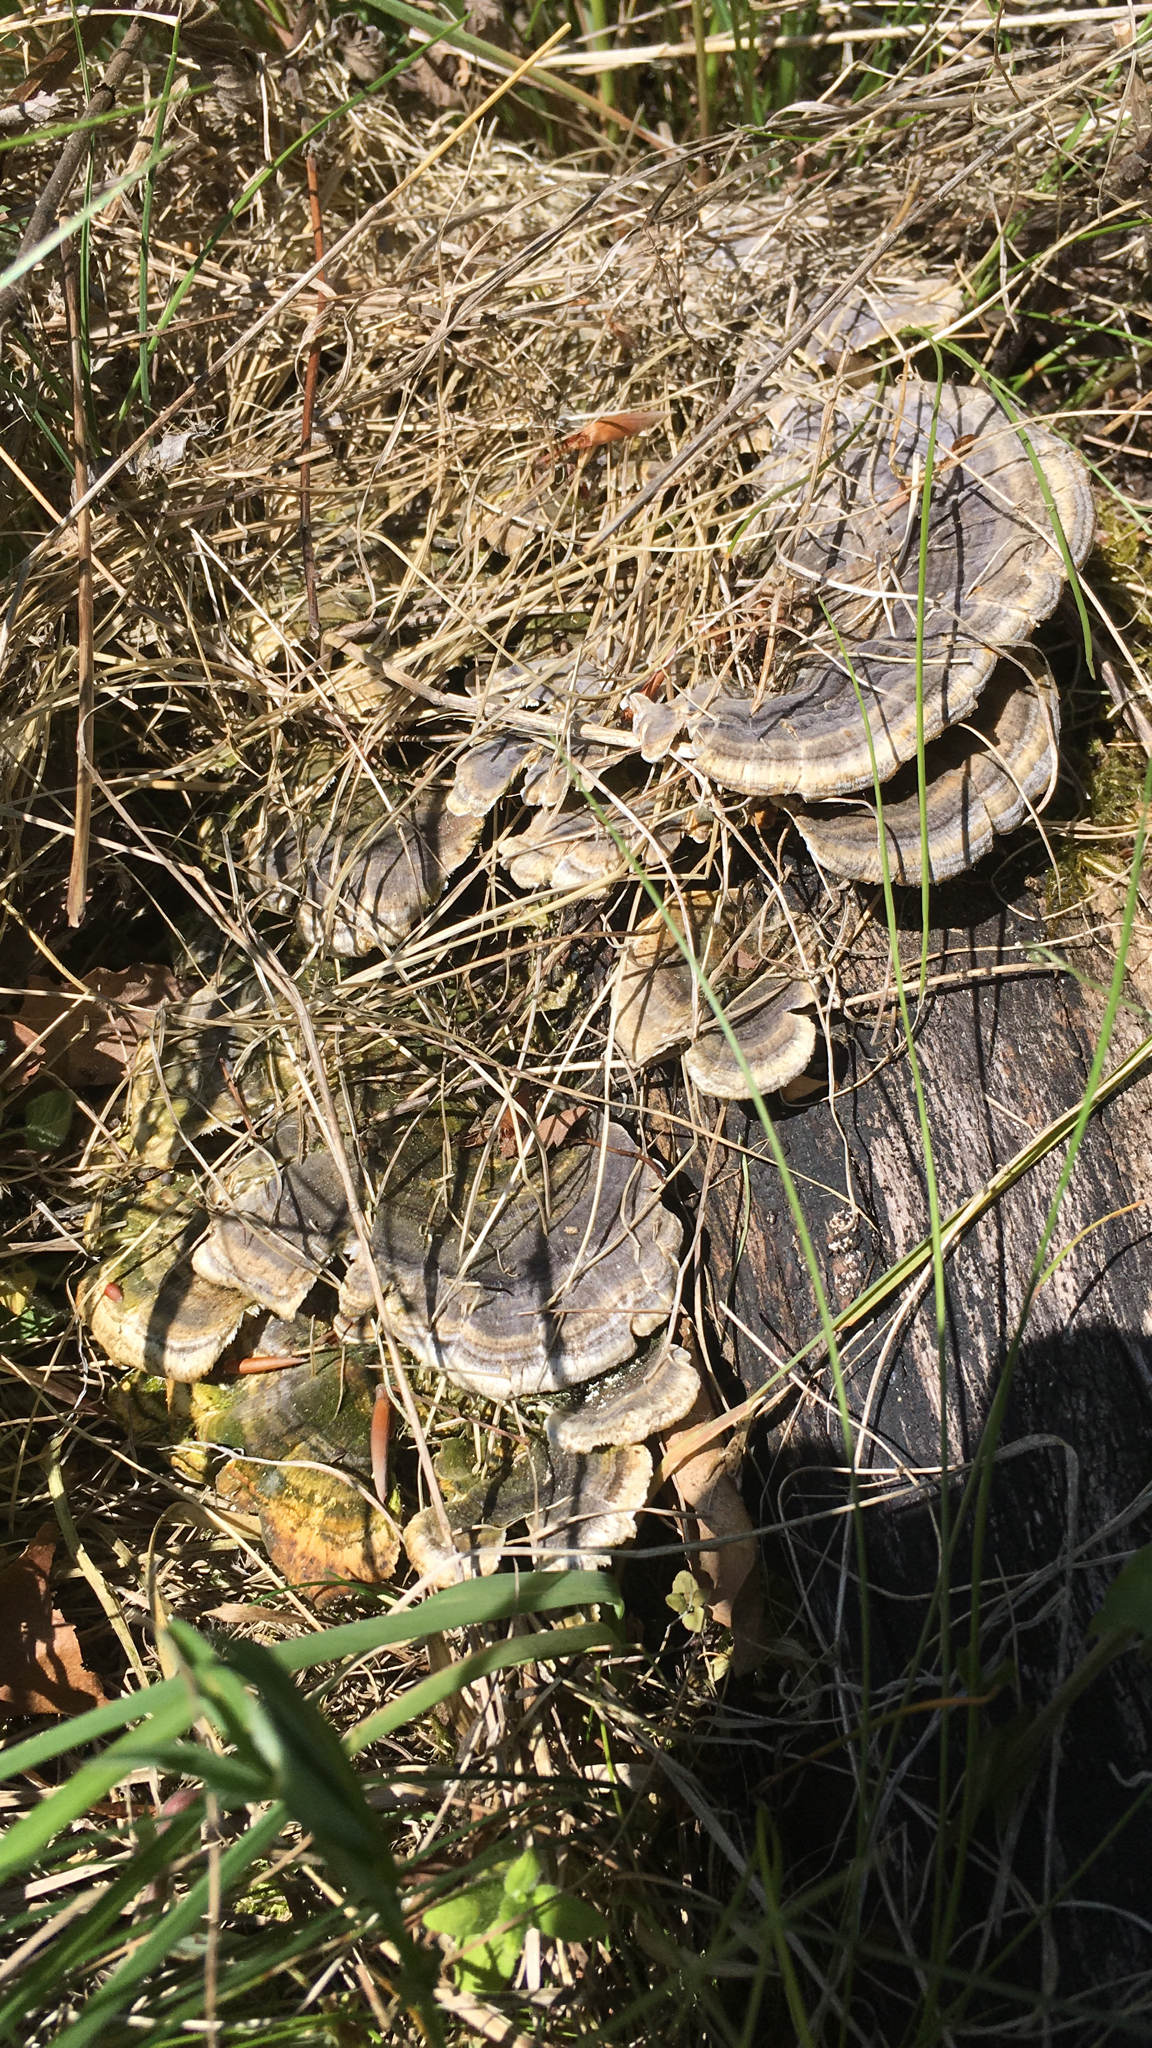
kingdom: Fungi
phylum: Basidiomycota
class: Agaricomycetes
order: Polyporales
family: Polyporaceae
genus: Trametes
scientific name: Trametes versicolor
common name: Turkeytail
